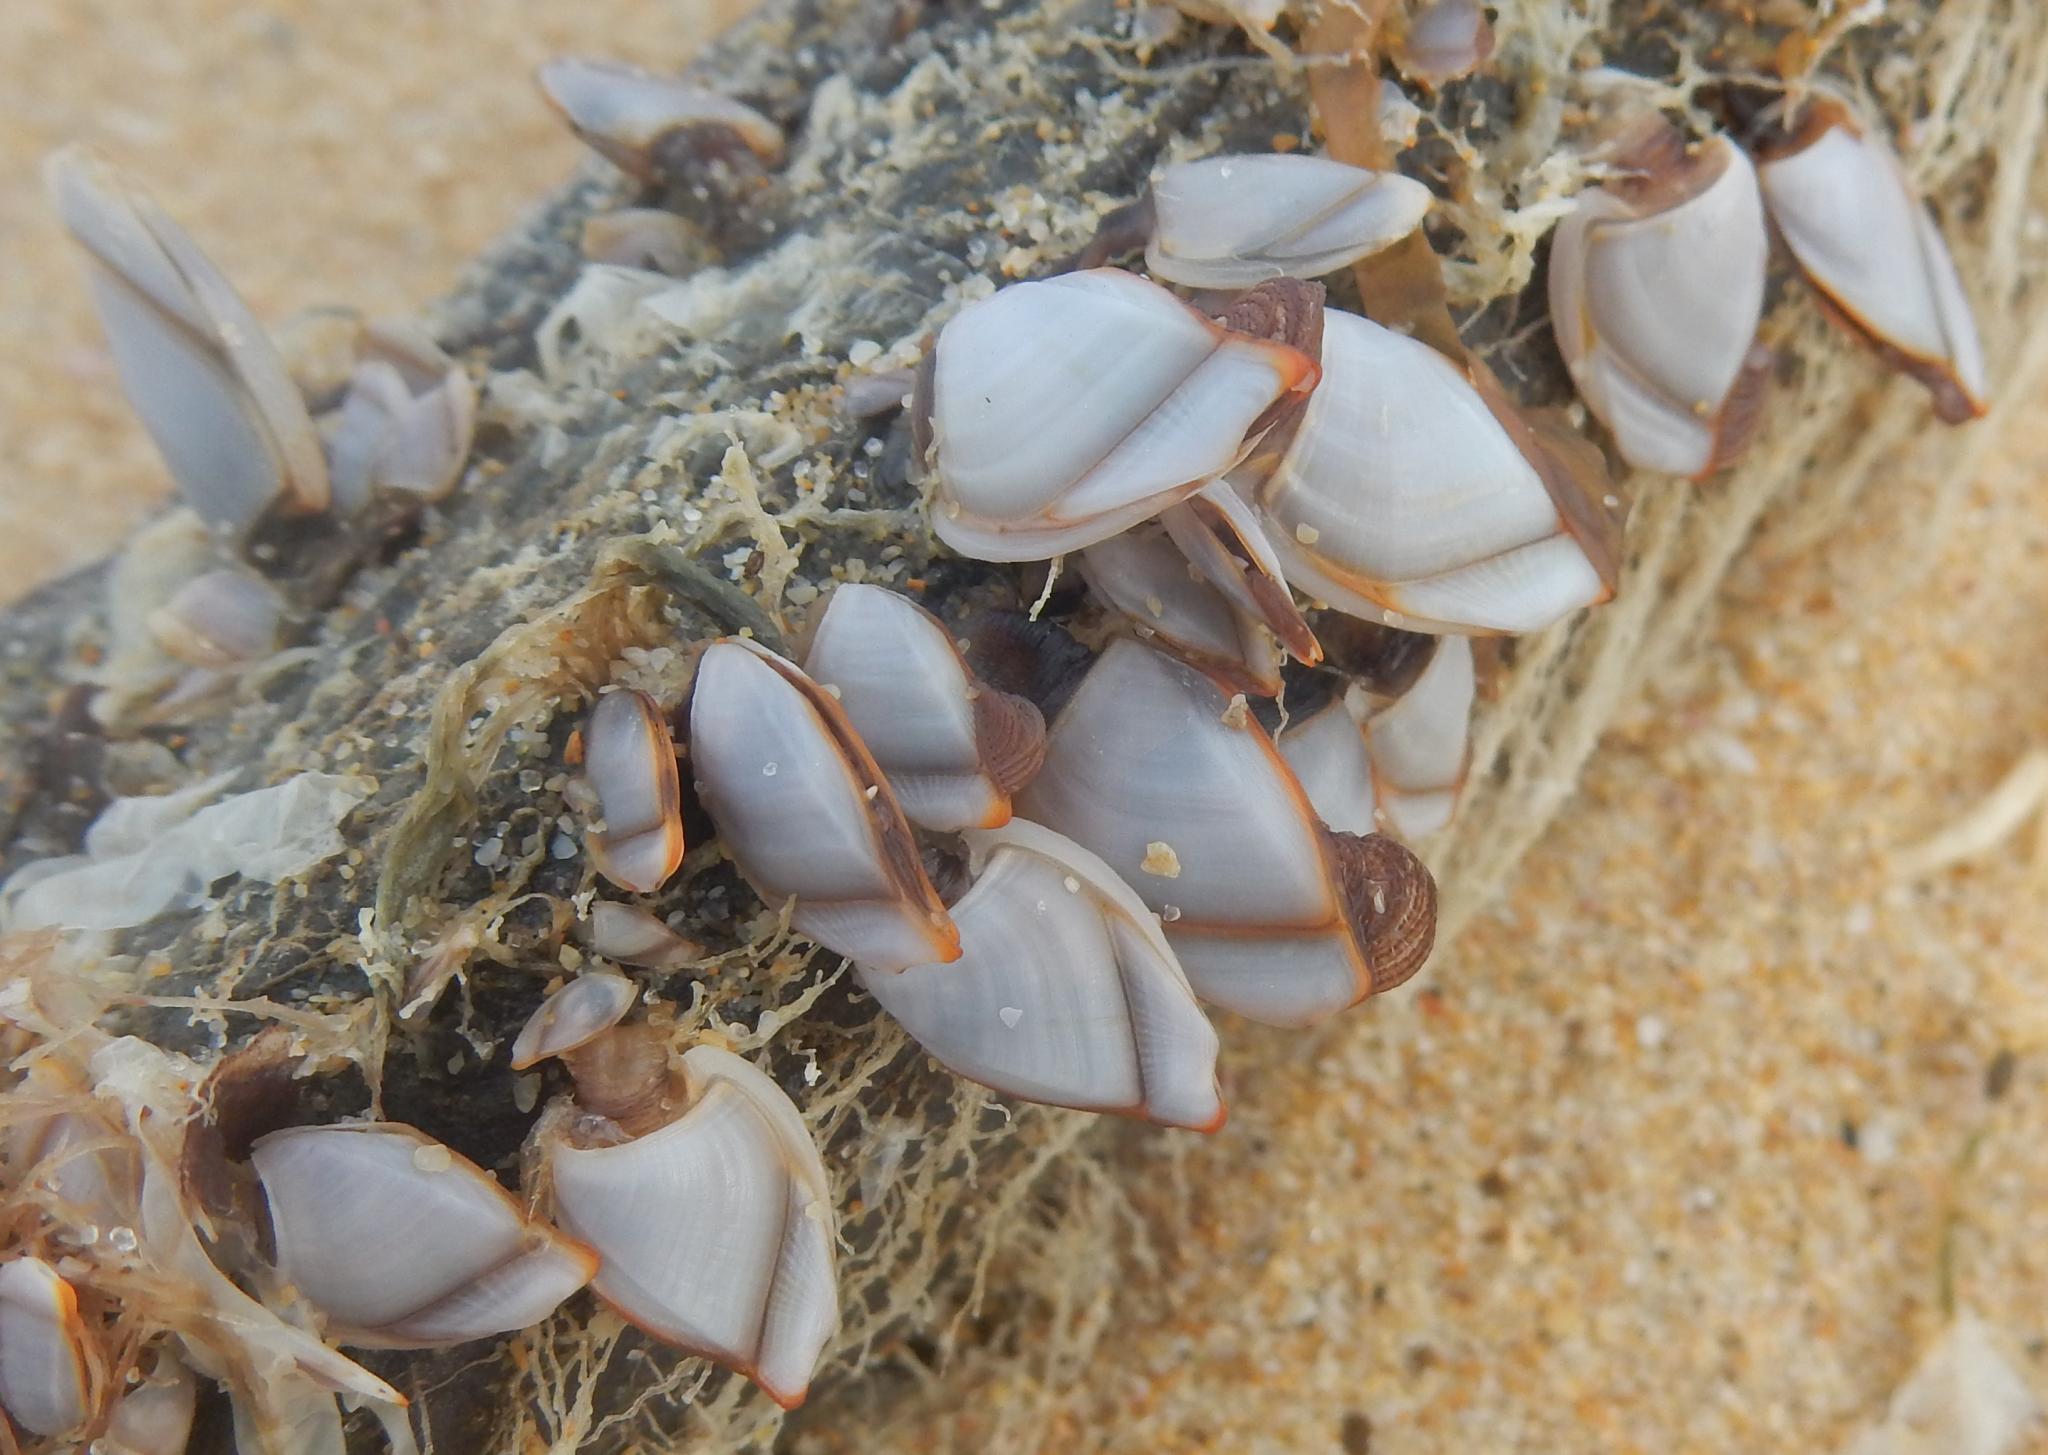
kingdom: Animalia
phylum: Arthropoda
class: Maxillopoda
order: Pedunculata
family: Lepadidae
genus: Lepas
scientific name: Lepas anserifera
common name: Goose barnacle
